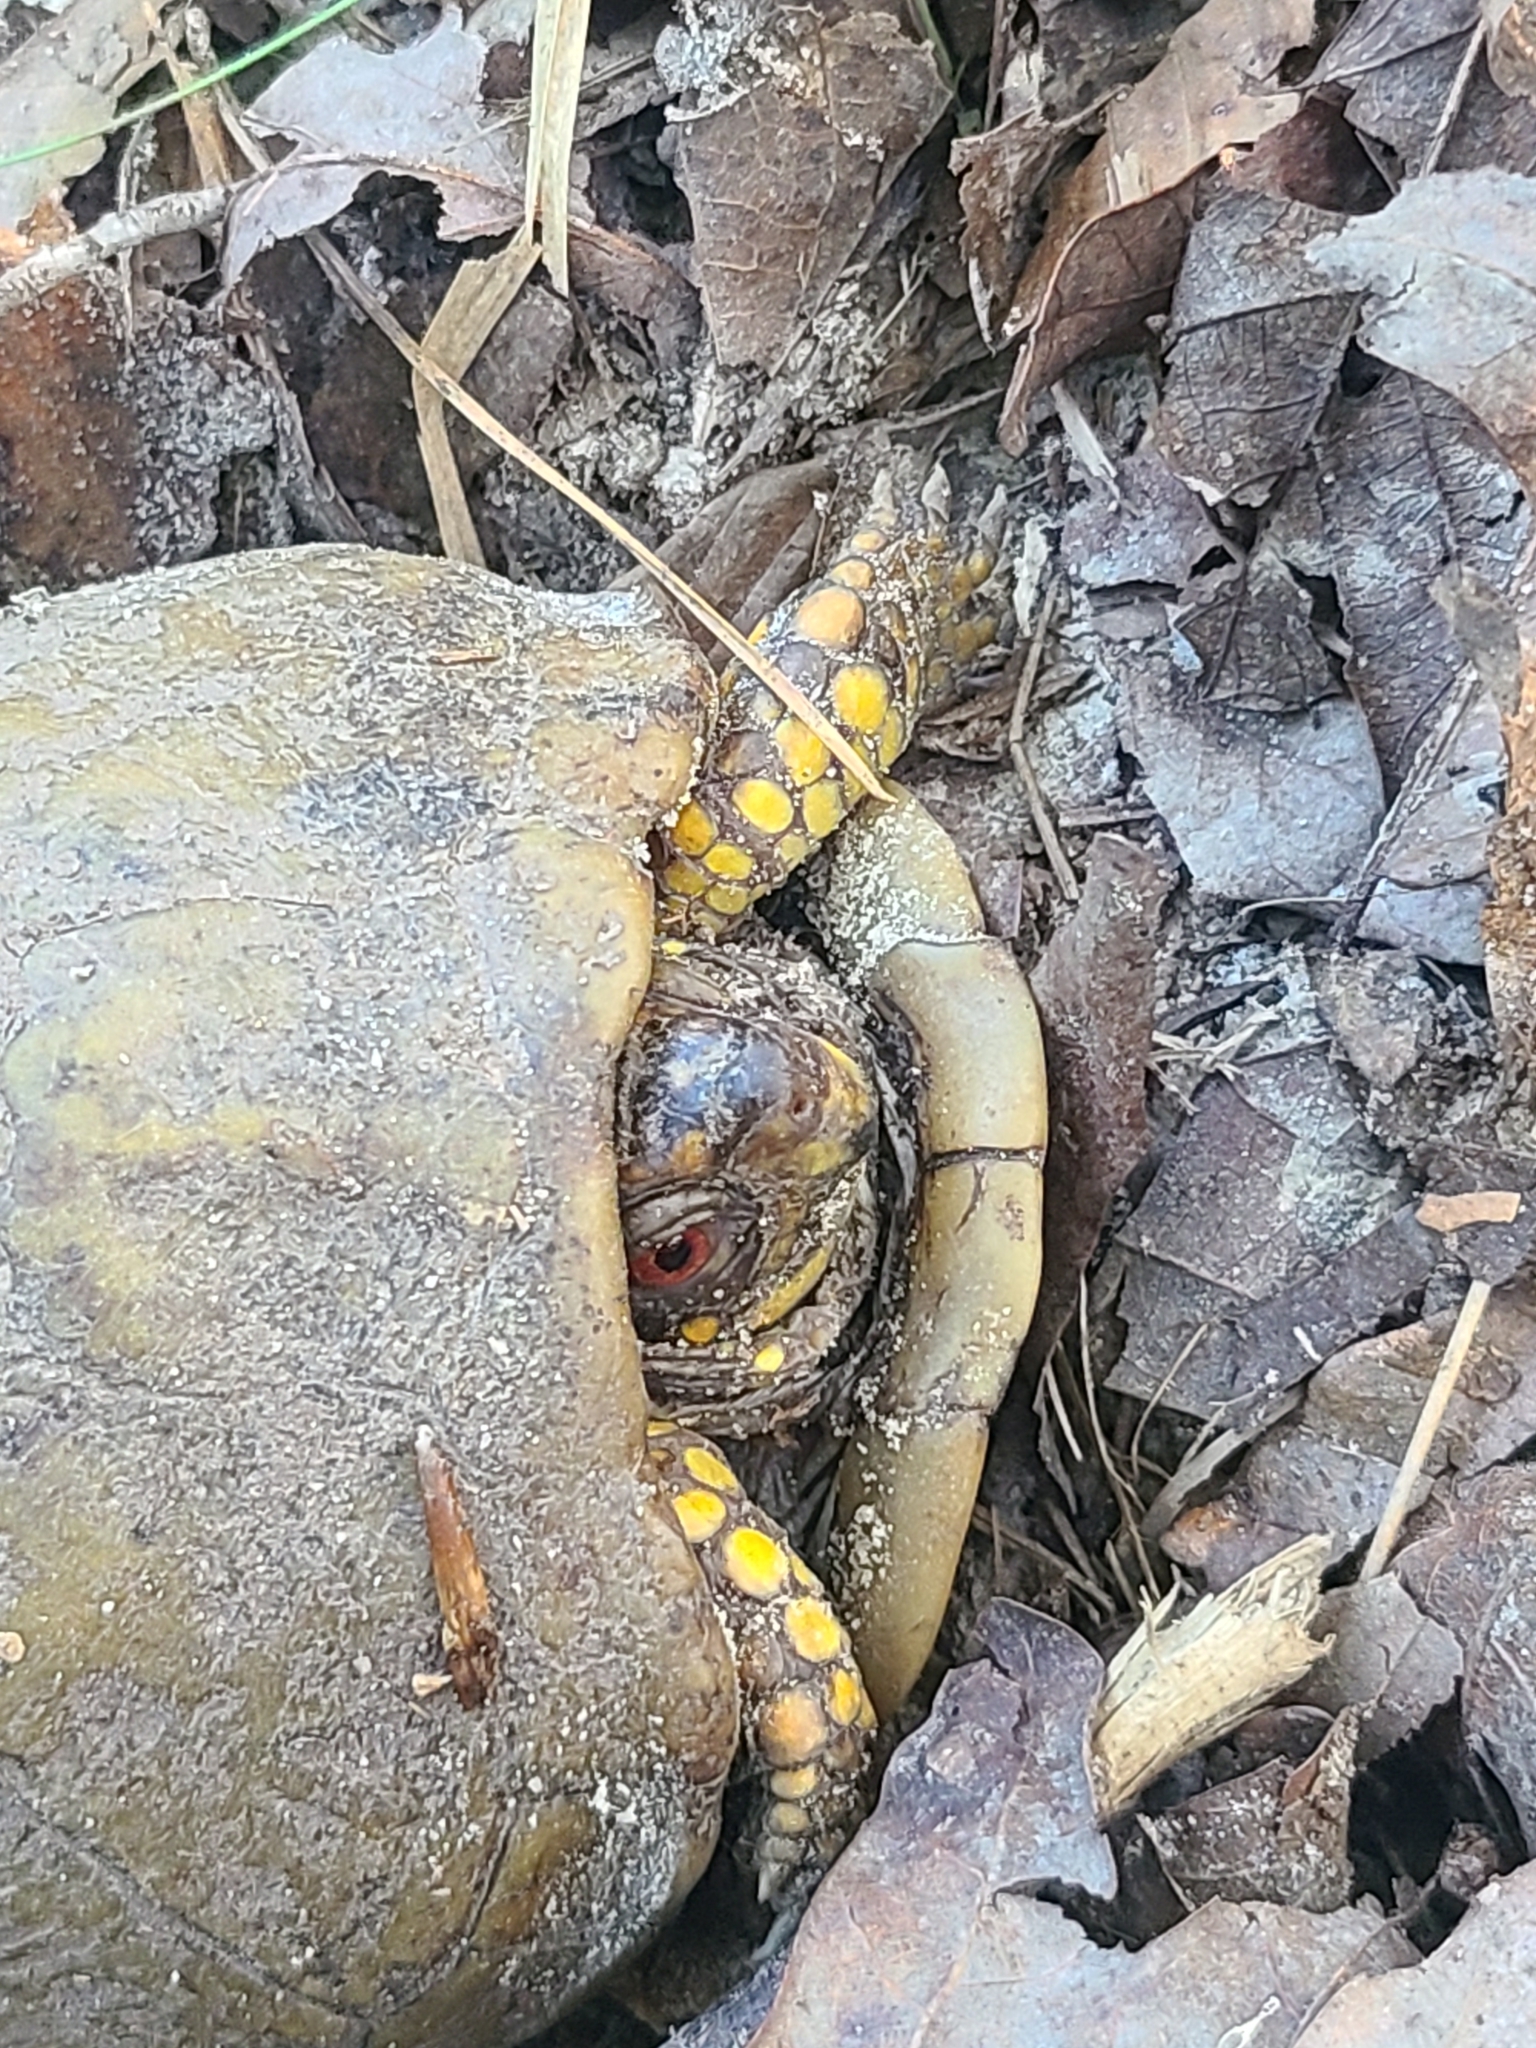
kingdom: Animalia
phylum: Chordata
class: Testudines
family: Emydidae
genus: Terrapene
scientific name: Terrapene carolina
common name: Common box turtle
